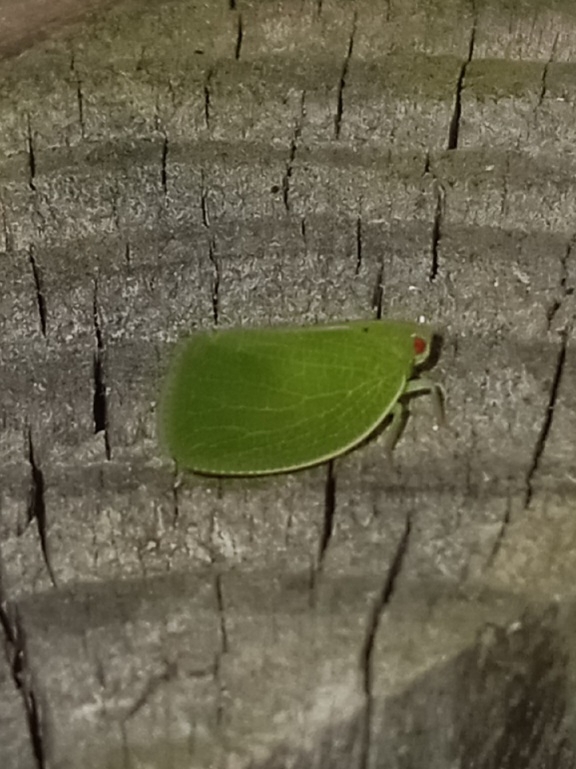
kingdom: Animalia
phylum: Arthropoda
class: Insecta
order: Hemiptera
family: Acanaloniidae
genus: Acanalonia
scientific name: Acanalonia conica
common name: Green cone-headed planthopper
